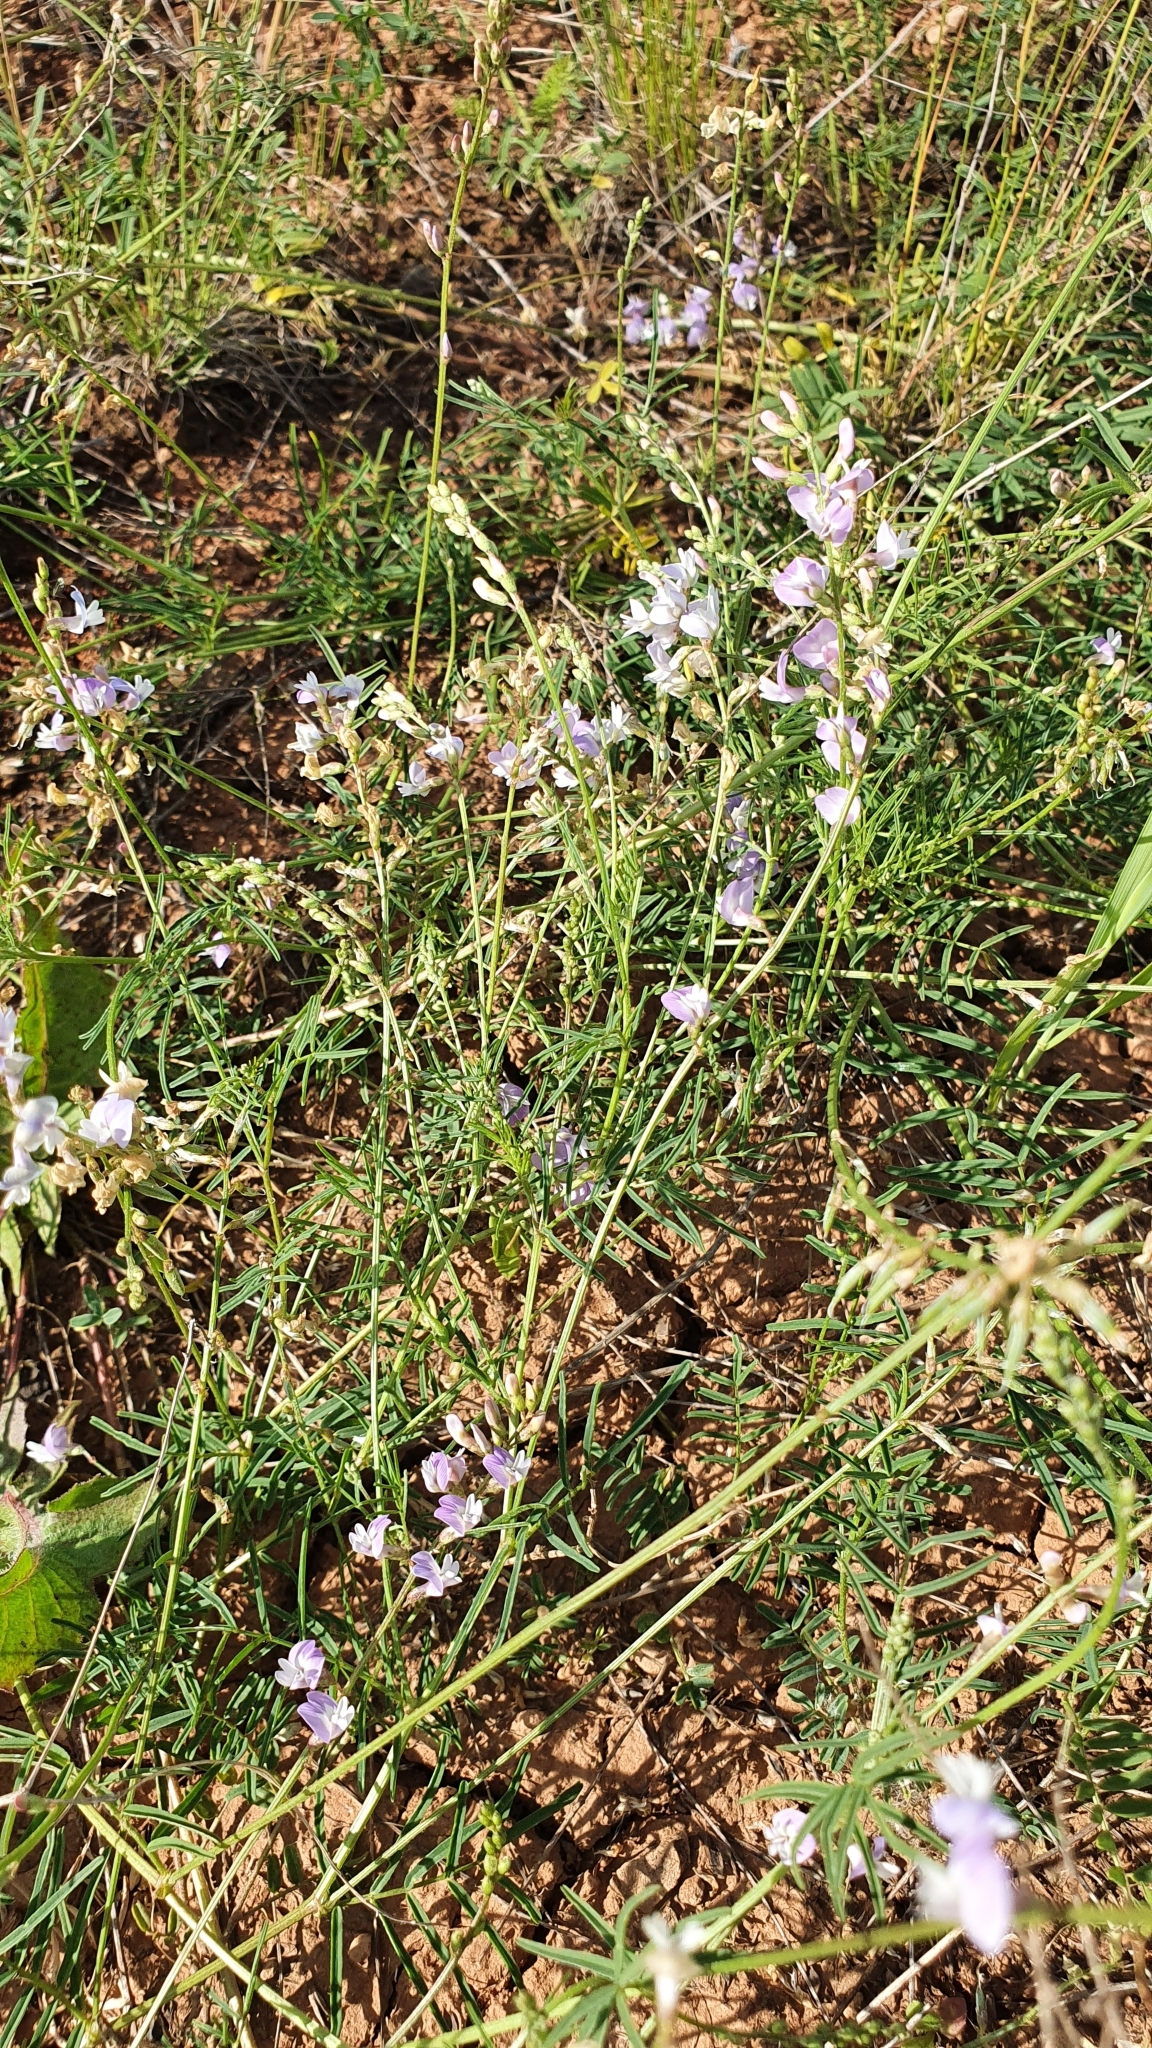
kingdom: Plantae
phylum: Tracheophyta
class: Magnoliopsida
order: Fabales
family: Fabaceae
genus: Astragalus
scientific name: Astragalus silvisteppaceus
